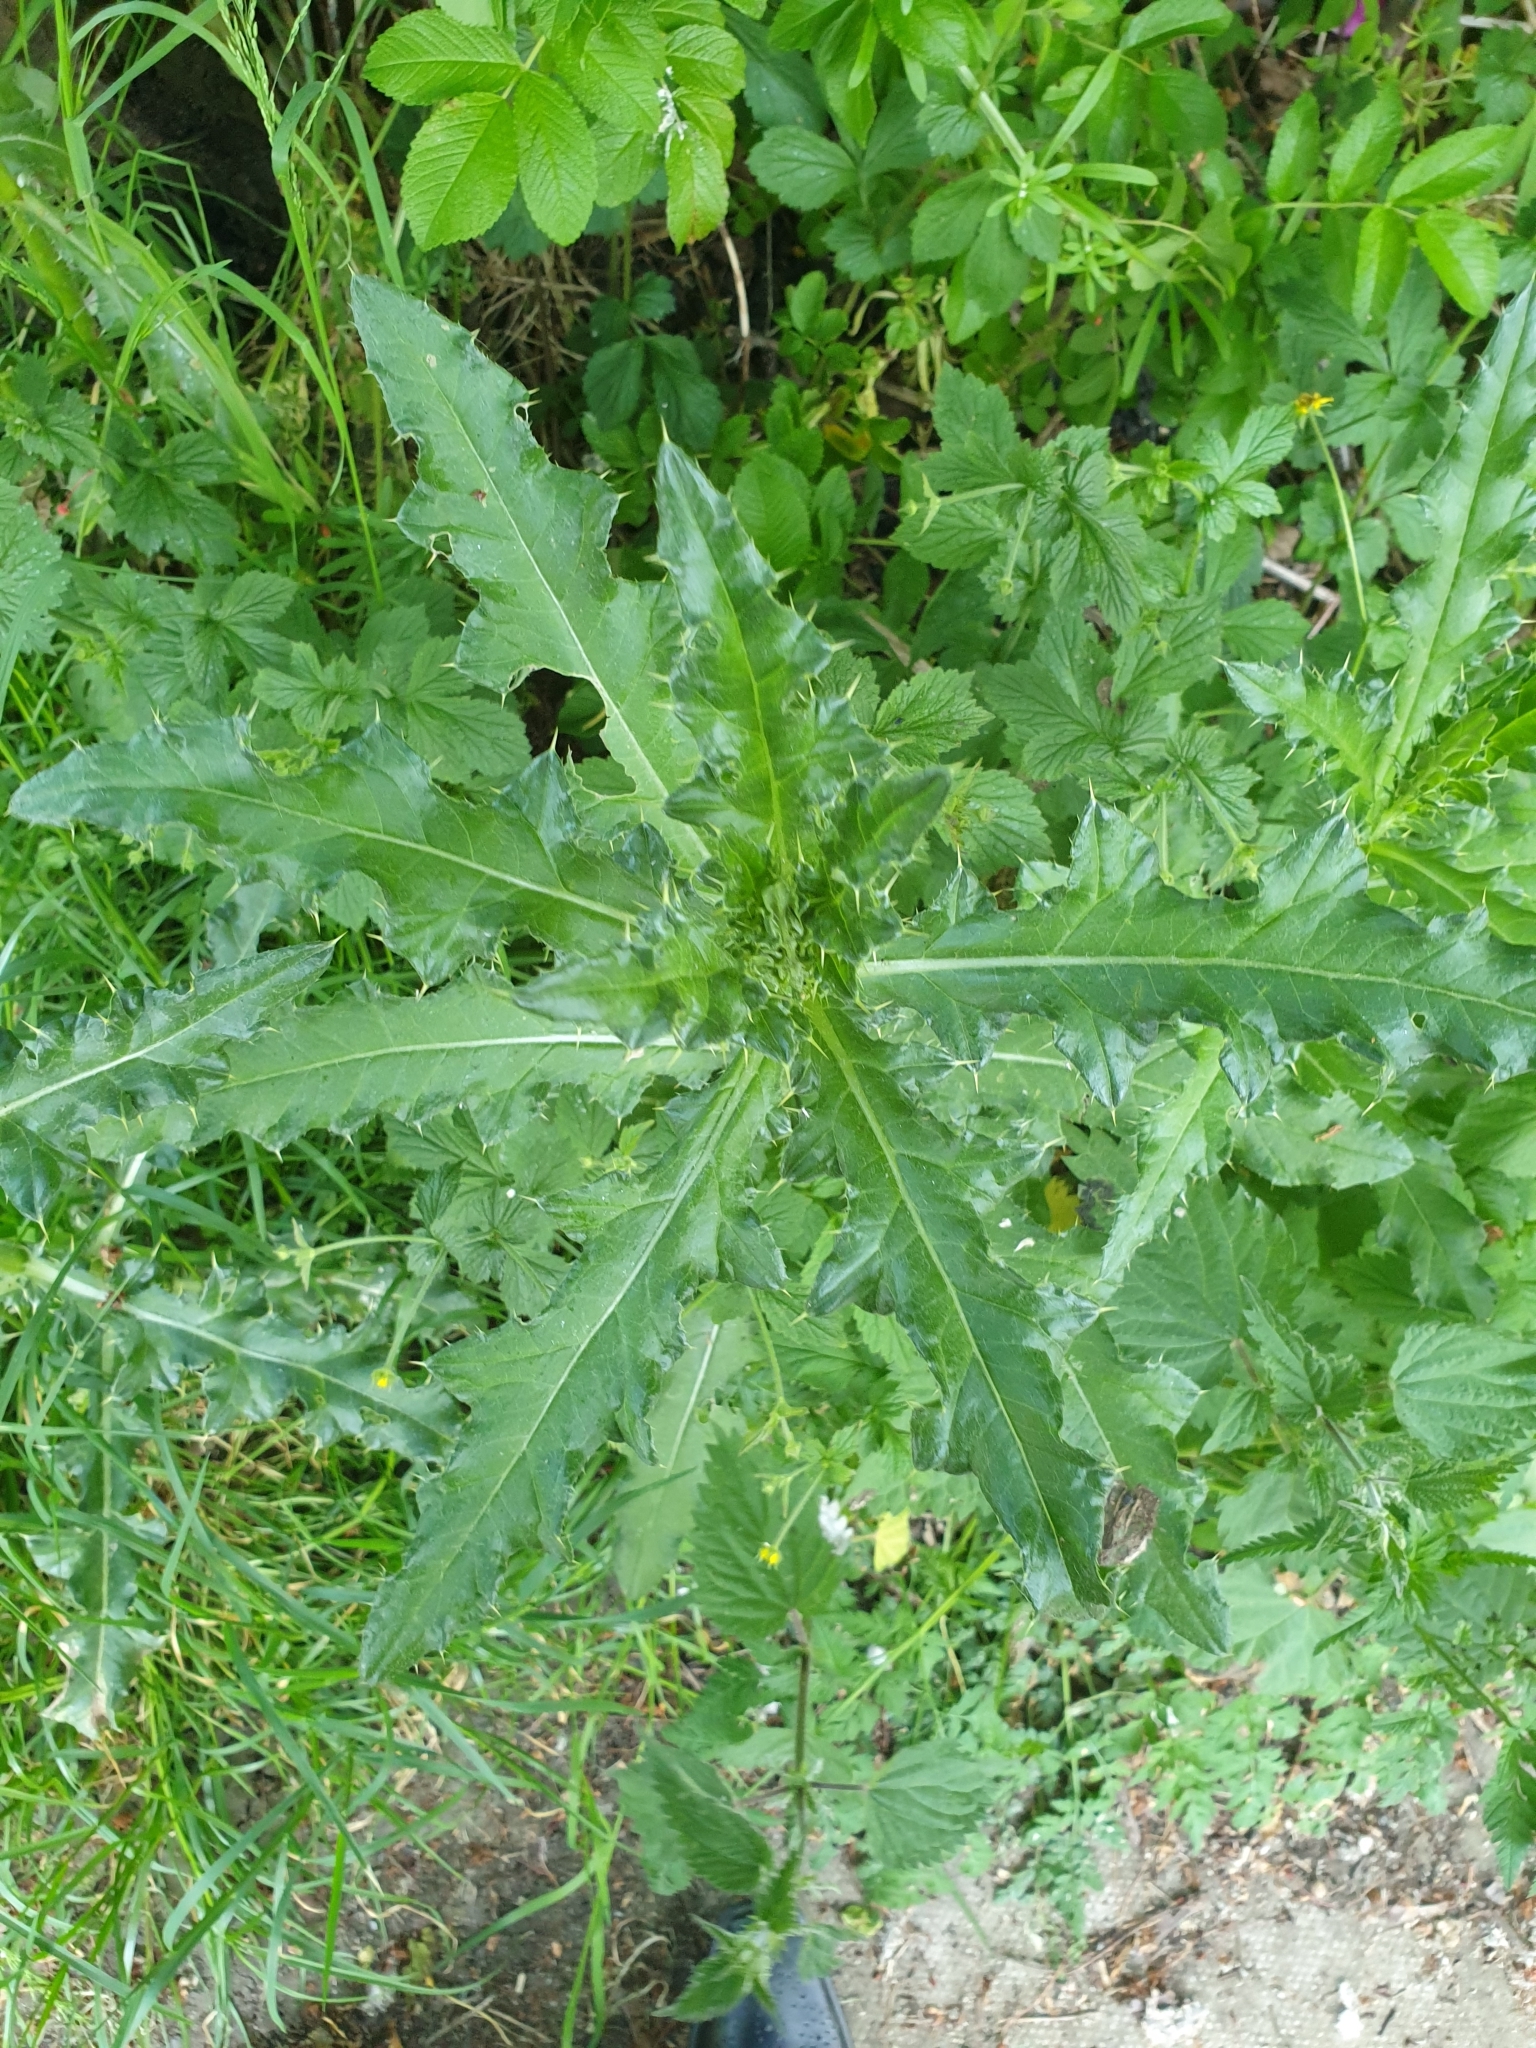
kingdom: Plantae
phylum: Tracheophyta
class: Magnoliopsida
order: Asterales
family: Asteraceae
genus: Cirsium
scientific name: Cirsium arvense
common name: Creeping thistle
